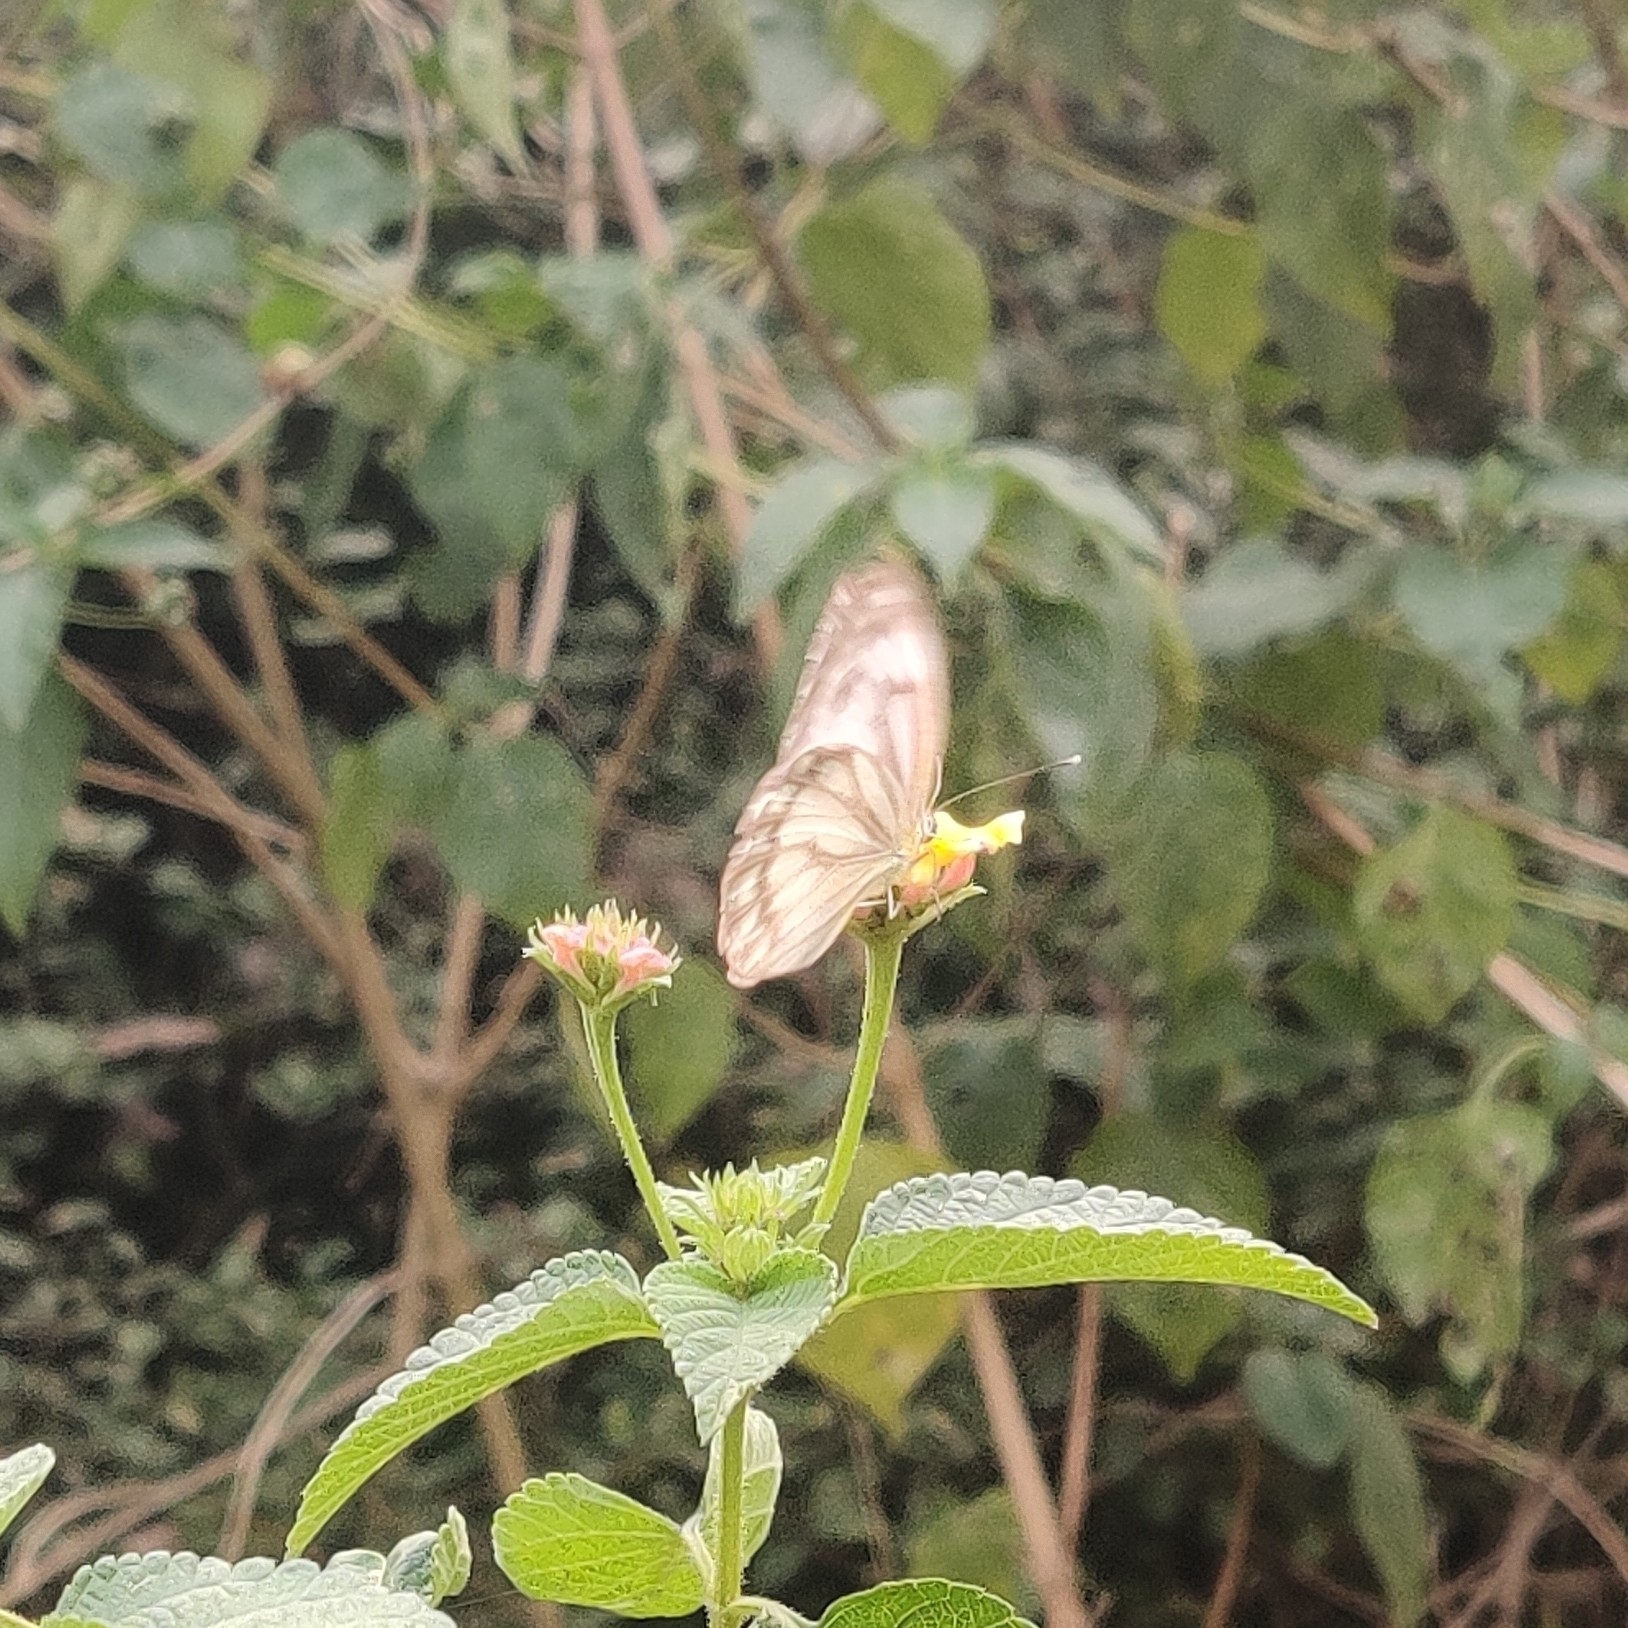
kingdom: Animalia
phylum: Arthropoda
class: Insecta
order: Lepidoptera
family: Pieridae
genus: Cepora
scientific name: Cepora nerissa
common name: Common gull
